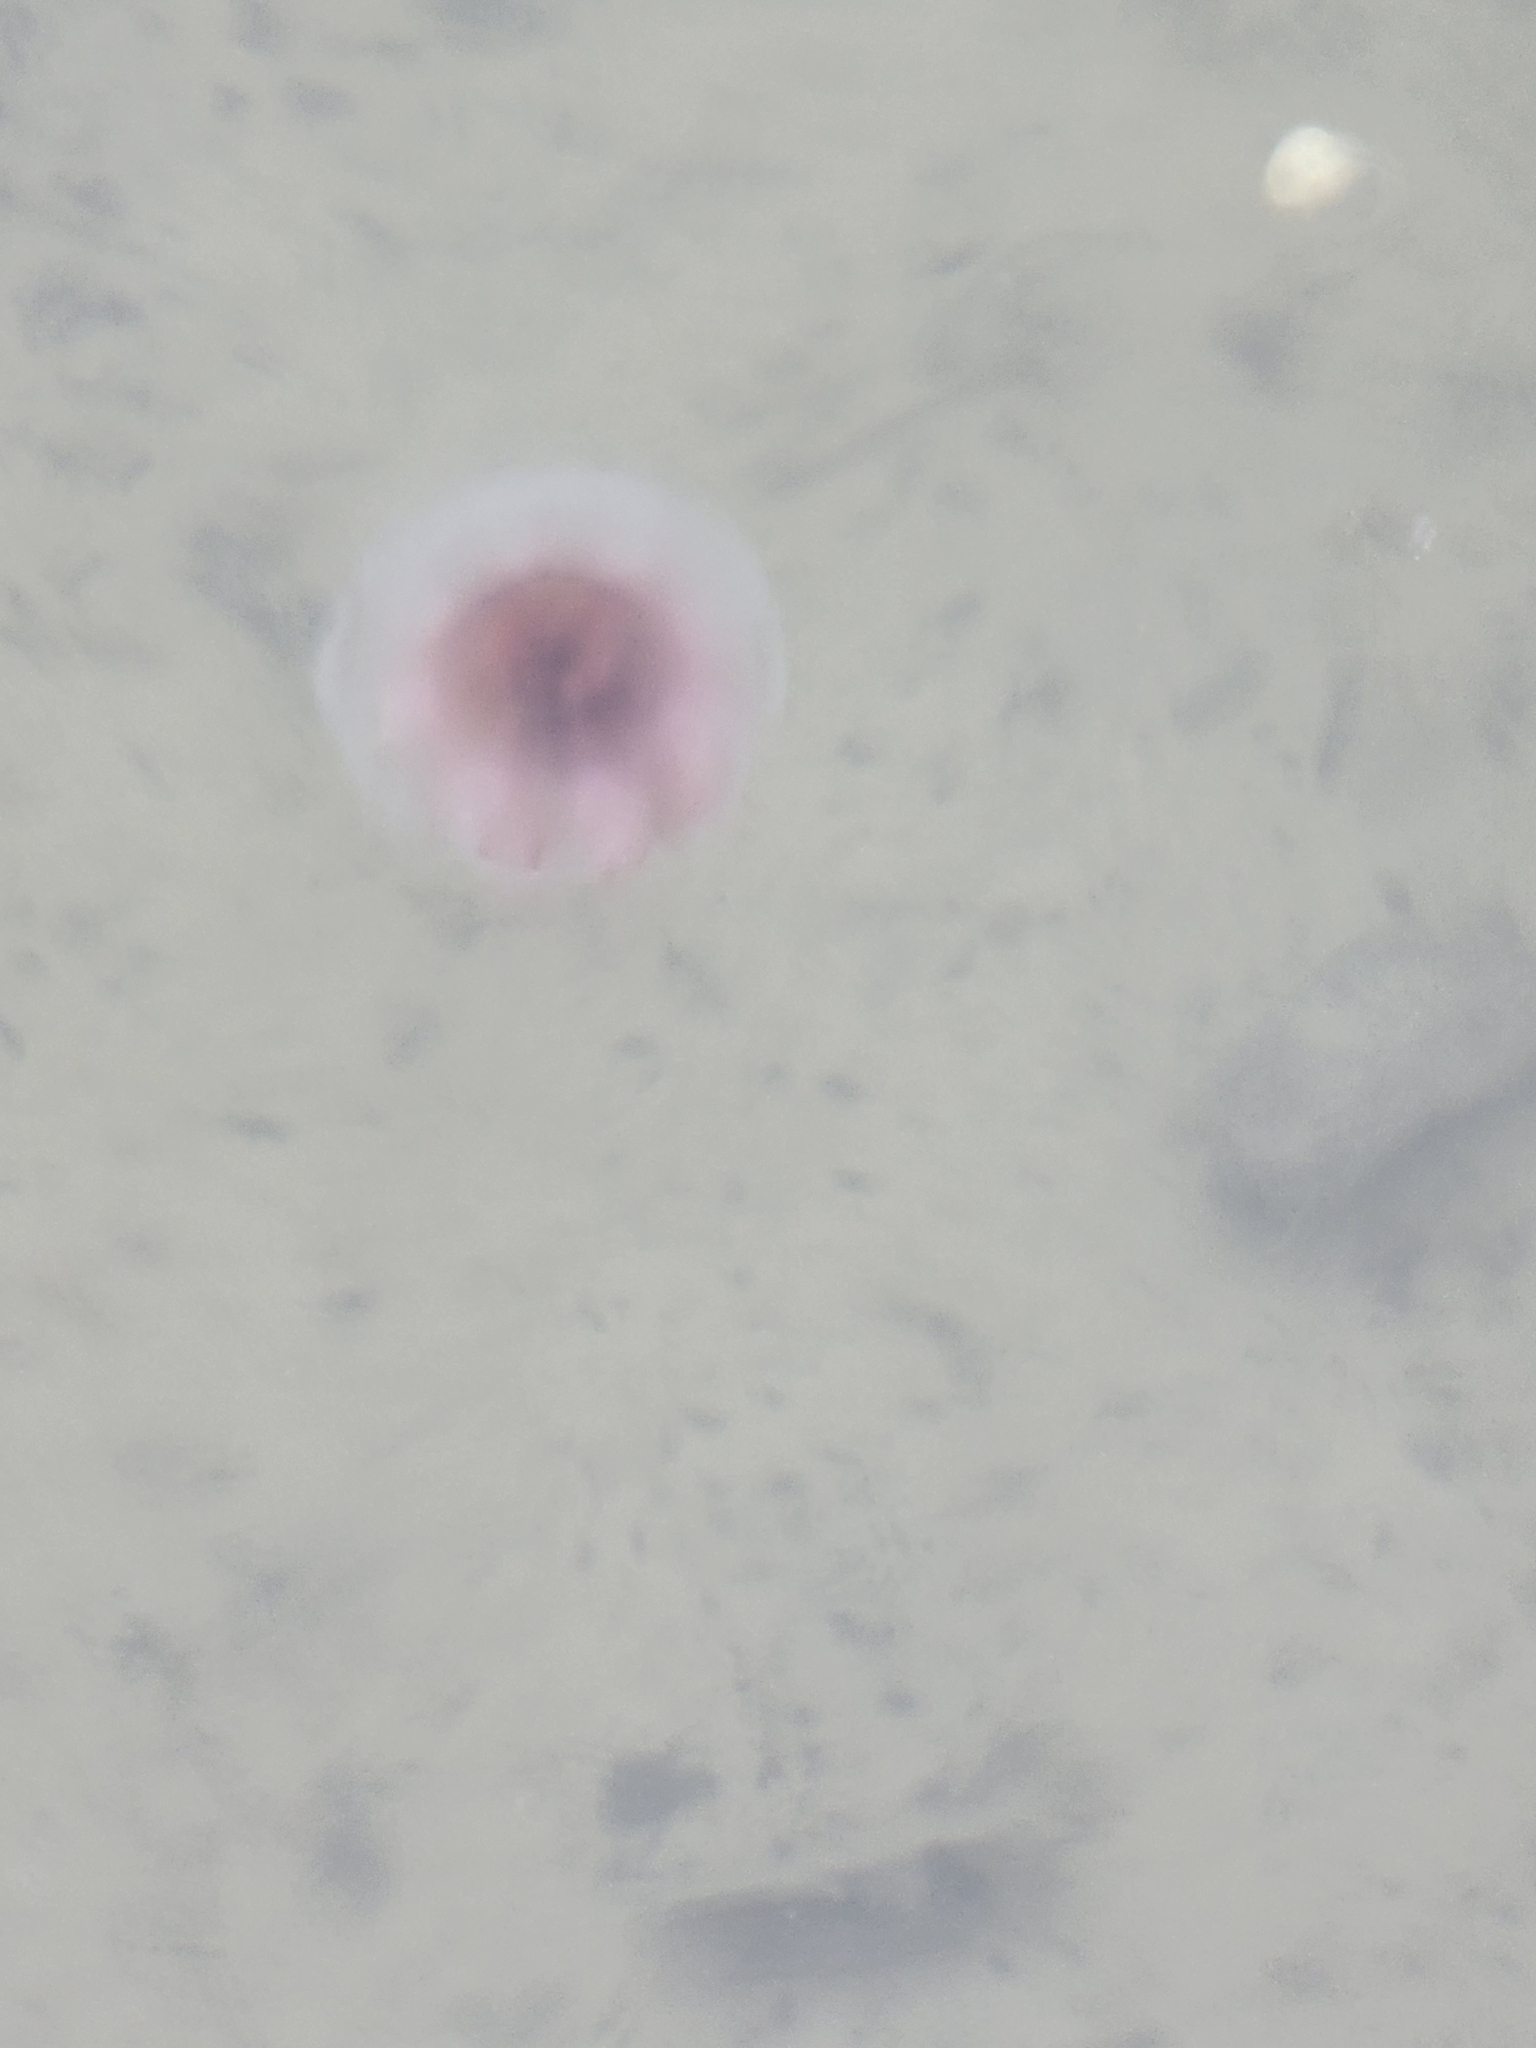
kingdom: Animalia
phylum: Cnidaria
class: Scyphozoa
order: Semaeostomeae
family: Cyaneidae
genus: Cyanea
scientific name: Cyanea versicolor
